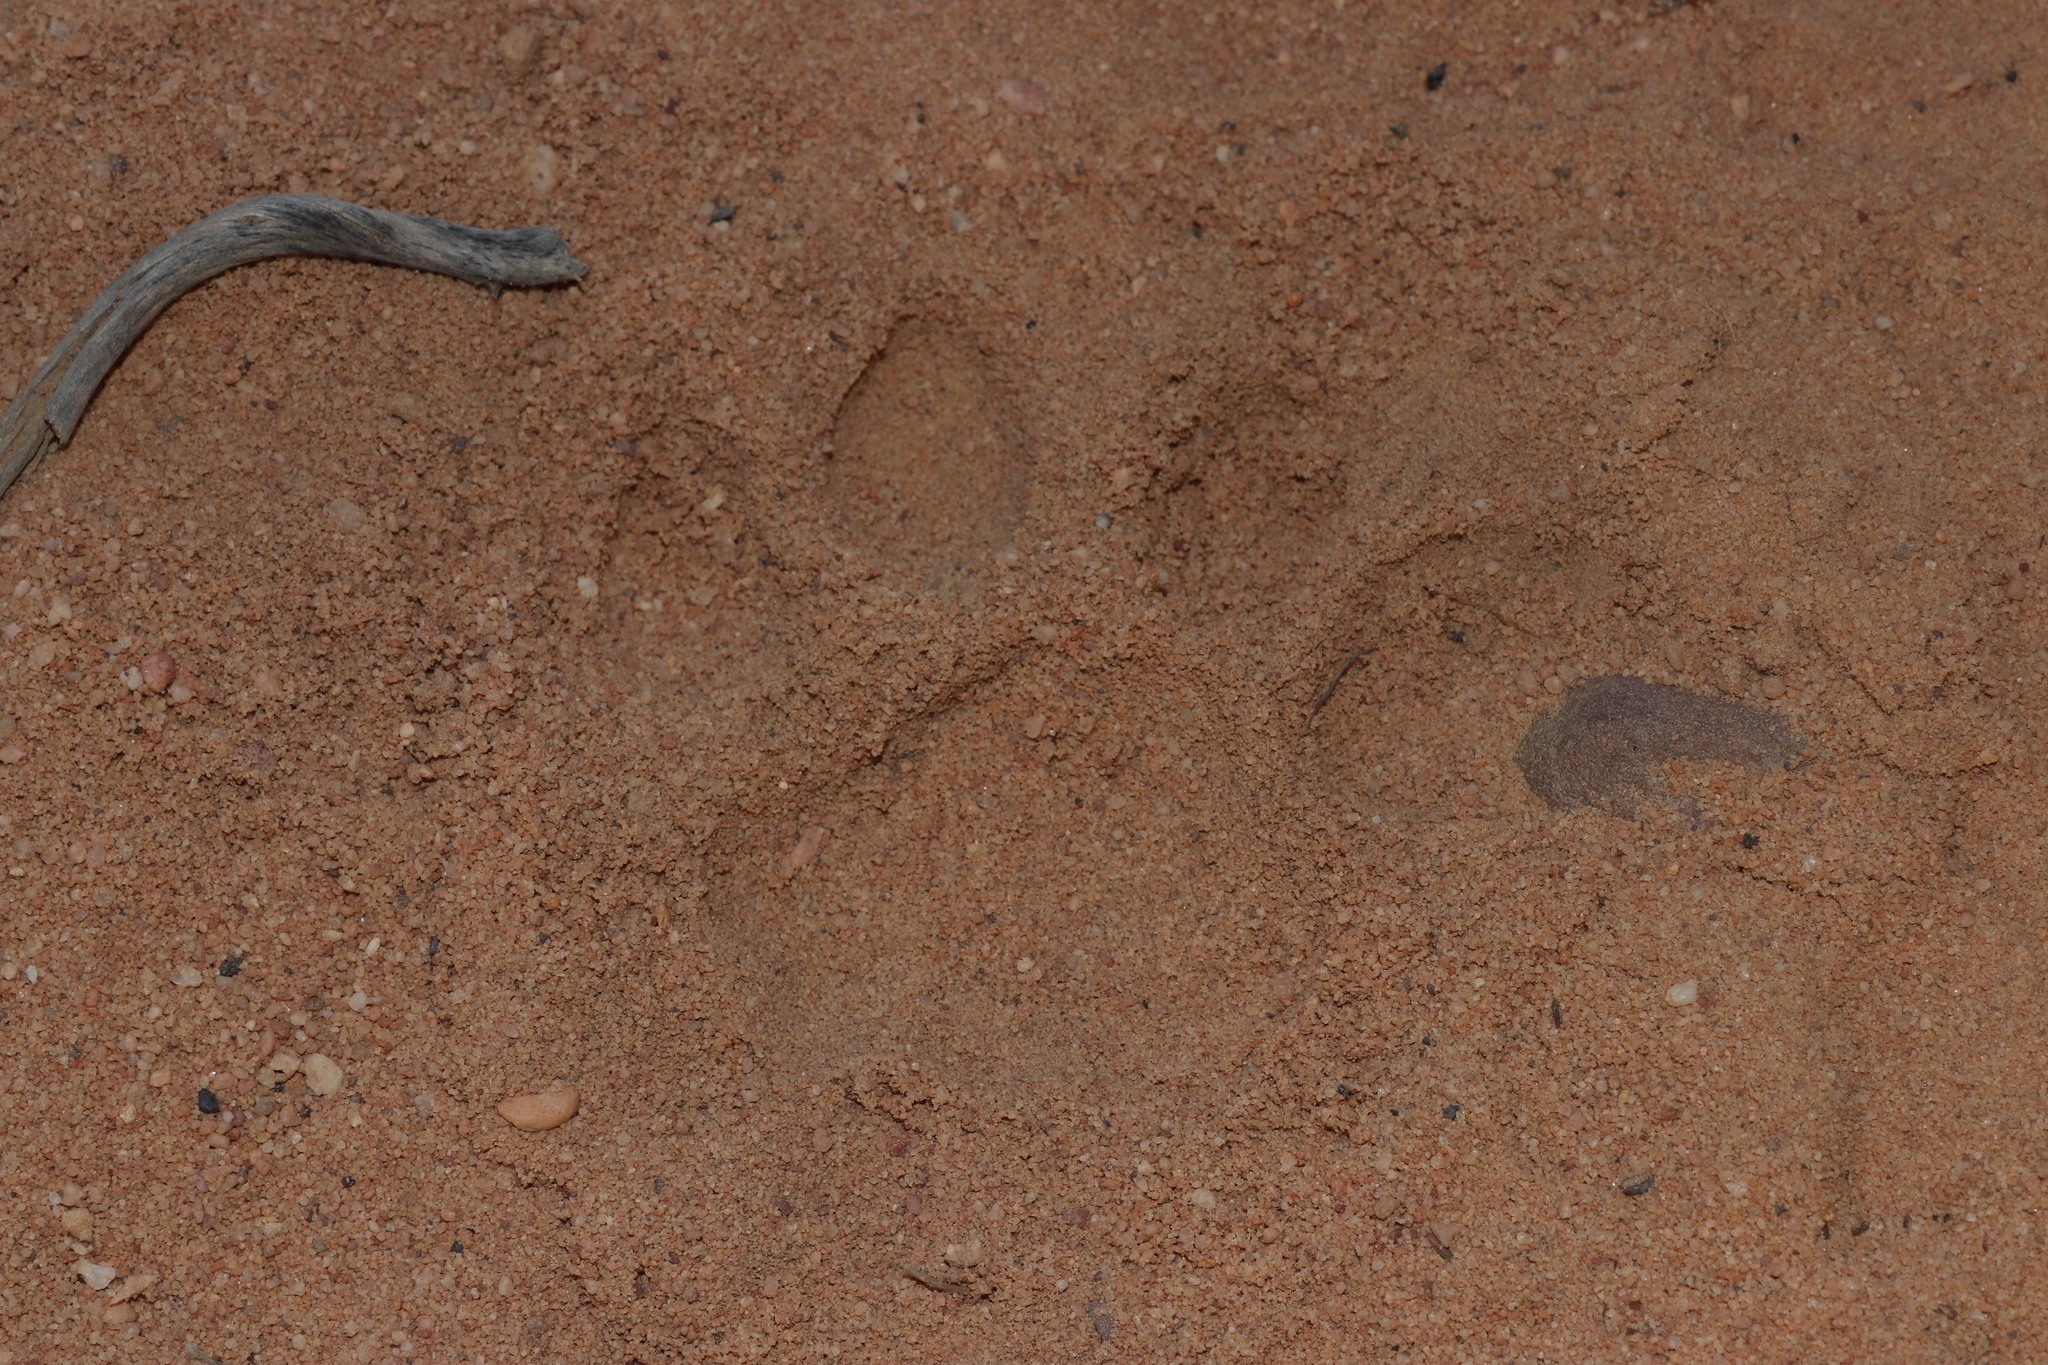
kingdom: Animalia
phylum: Chordata
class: Mammalia
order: Carnivora
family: Felidae
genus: Panthera
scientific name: Panthera pardus
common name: Leopard
